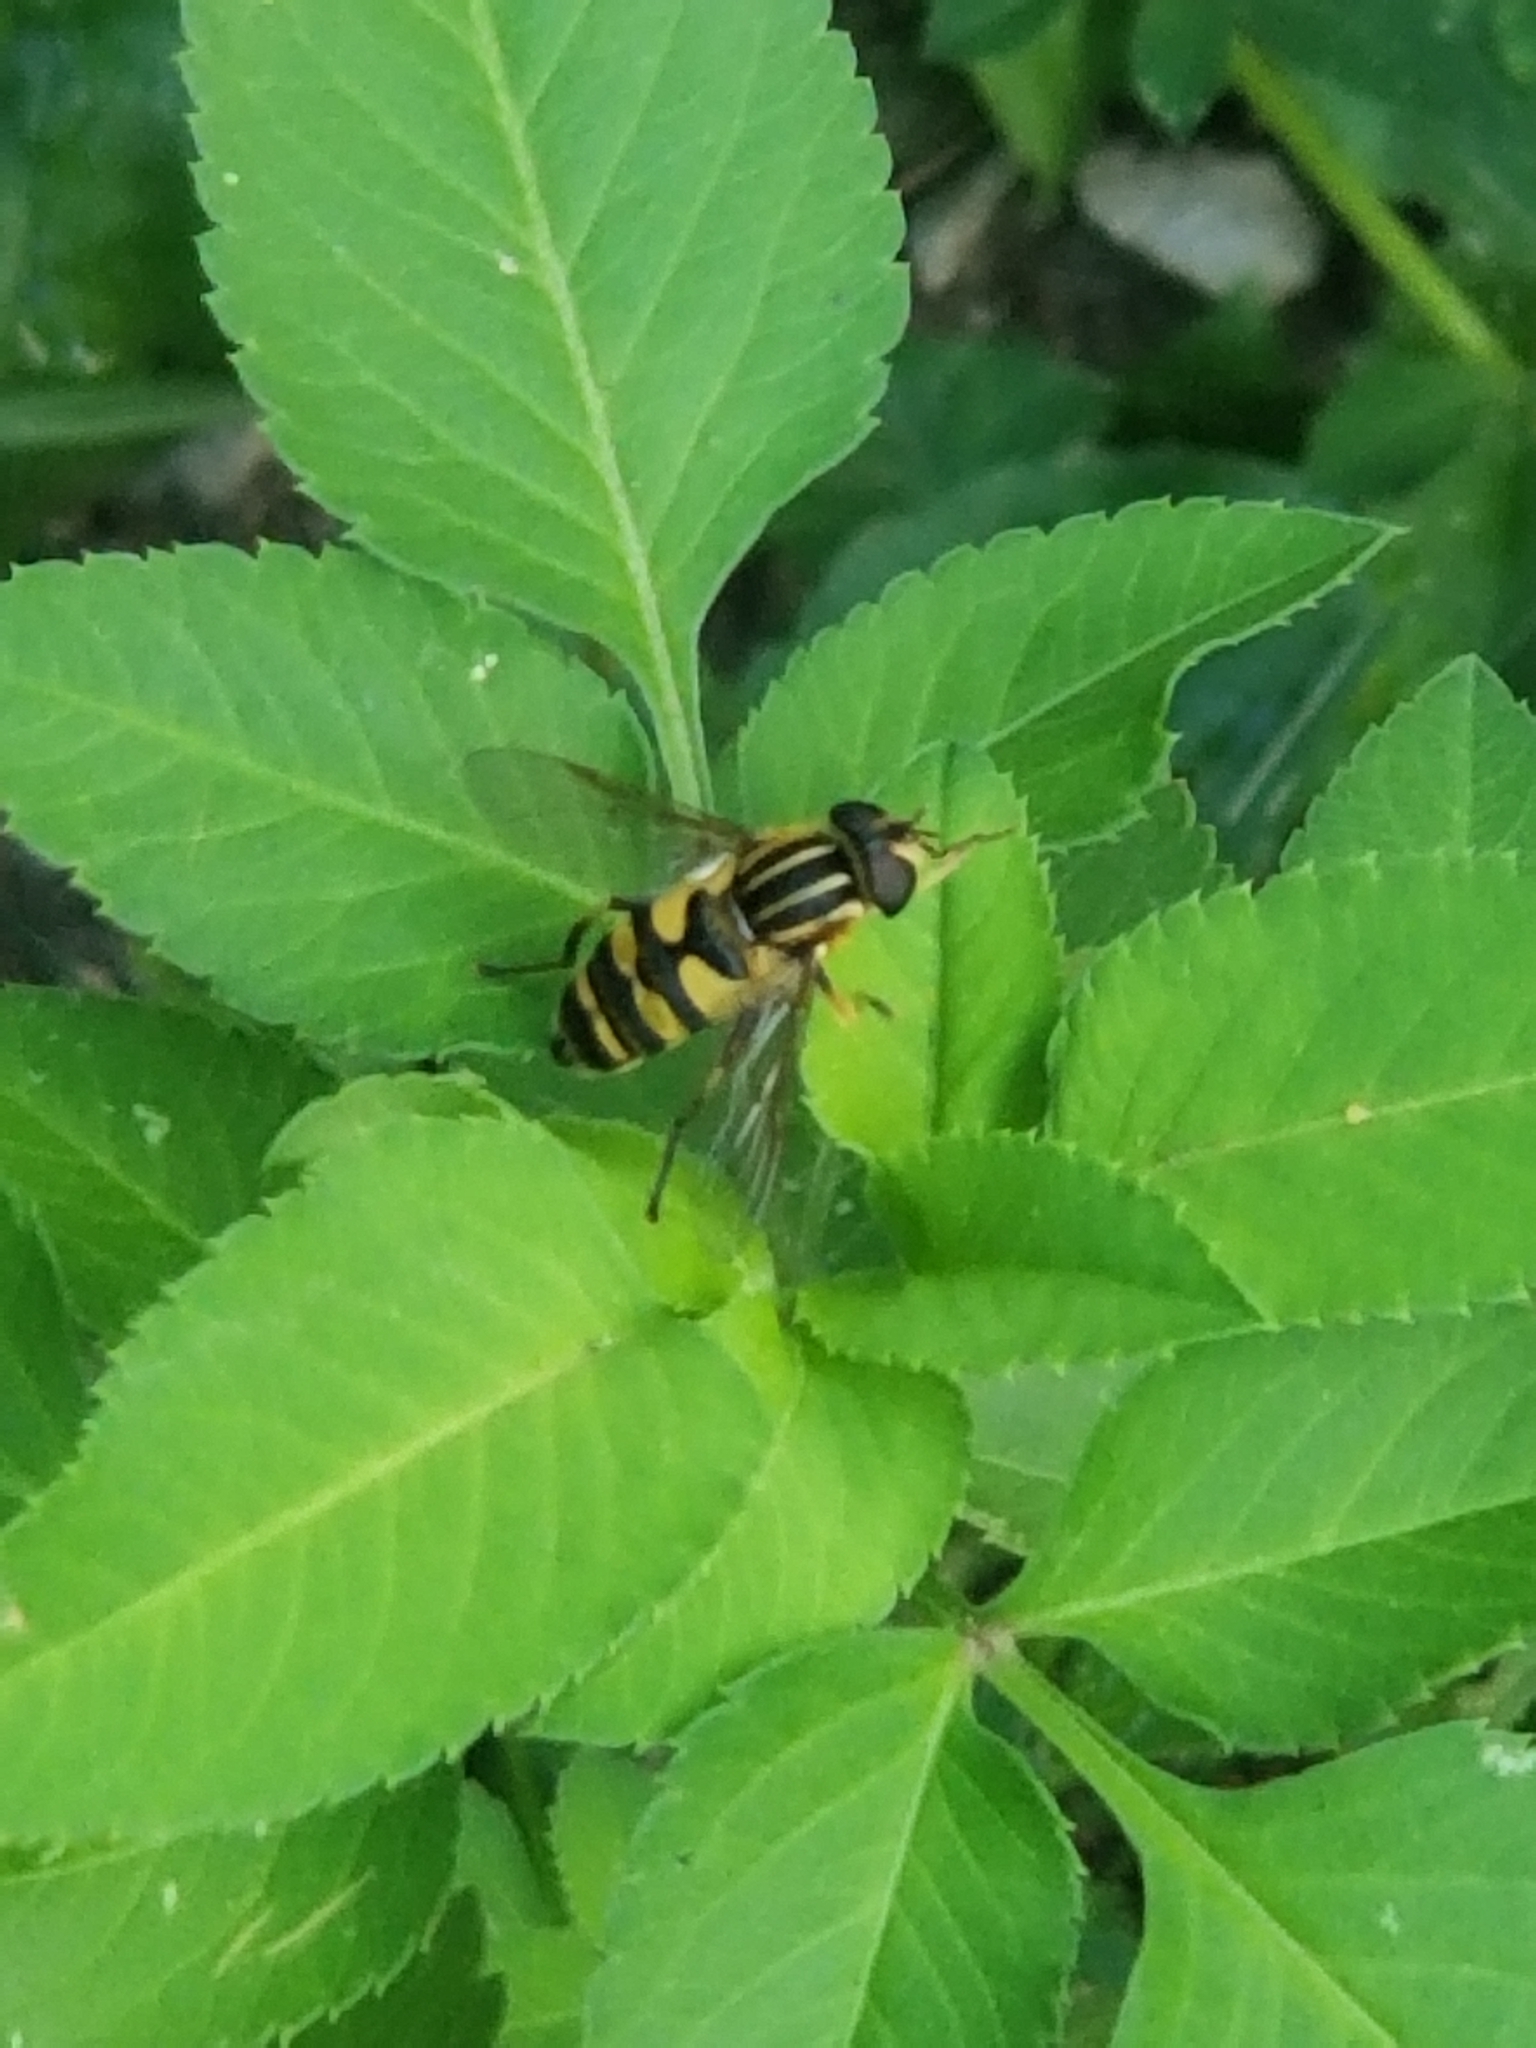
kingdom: Animalia
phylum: Arthropoda
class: Insecta
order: Diptera
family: Syrphidae
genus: Helophilus
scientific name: Helophilus fasciatus
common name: Narrow-headed marsh fly
